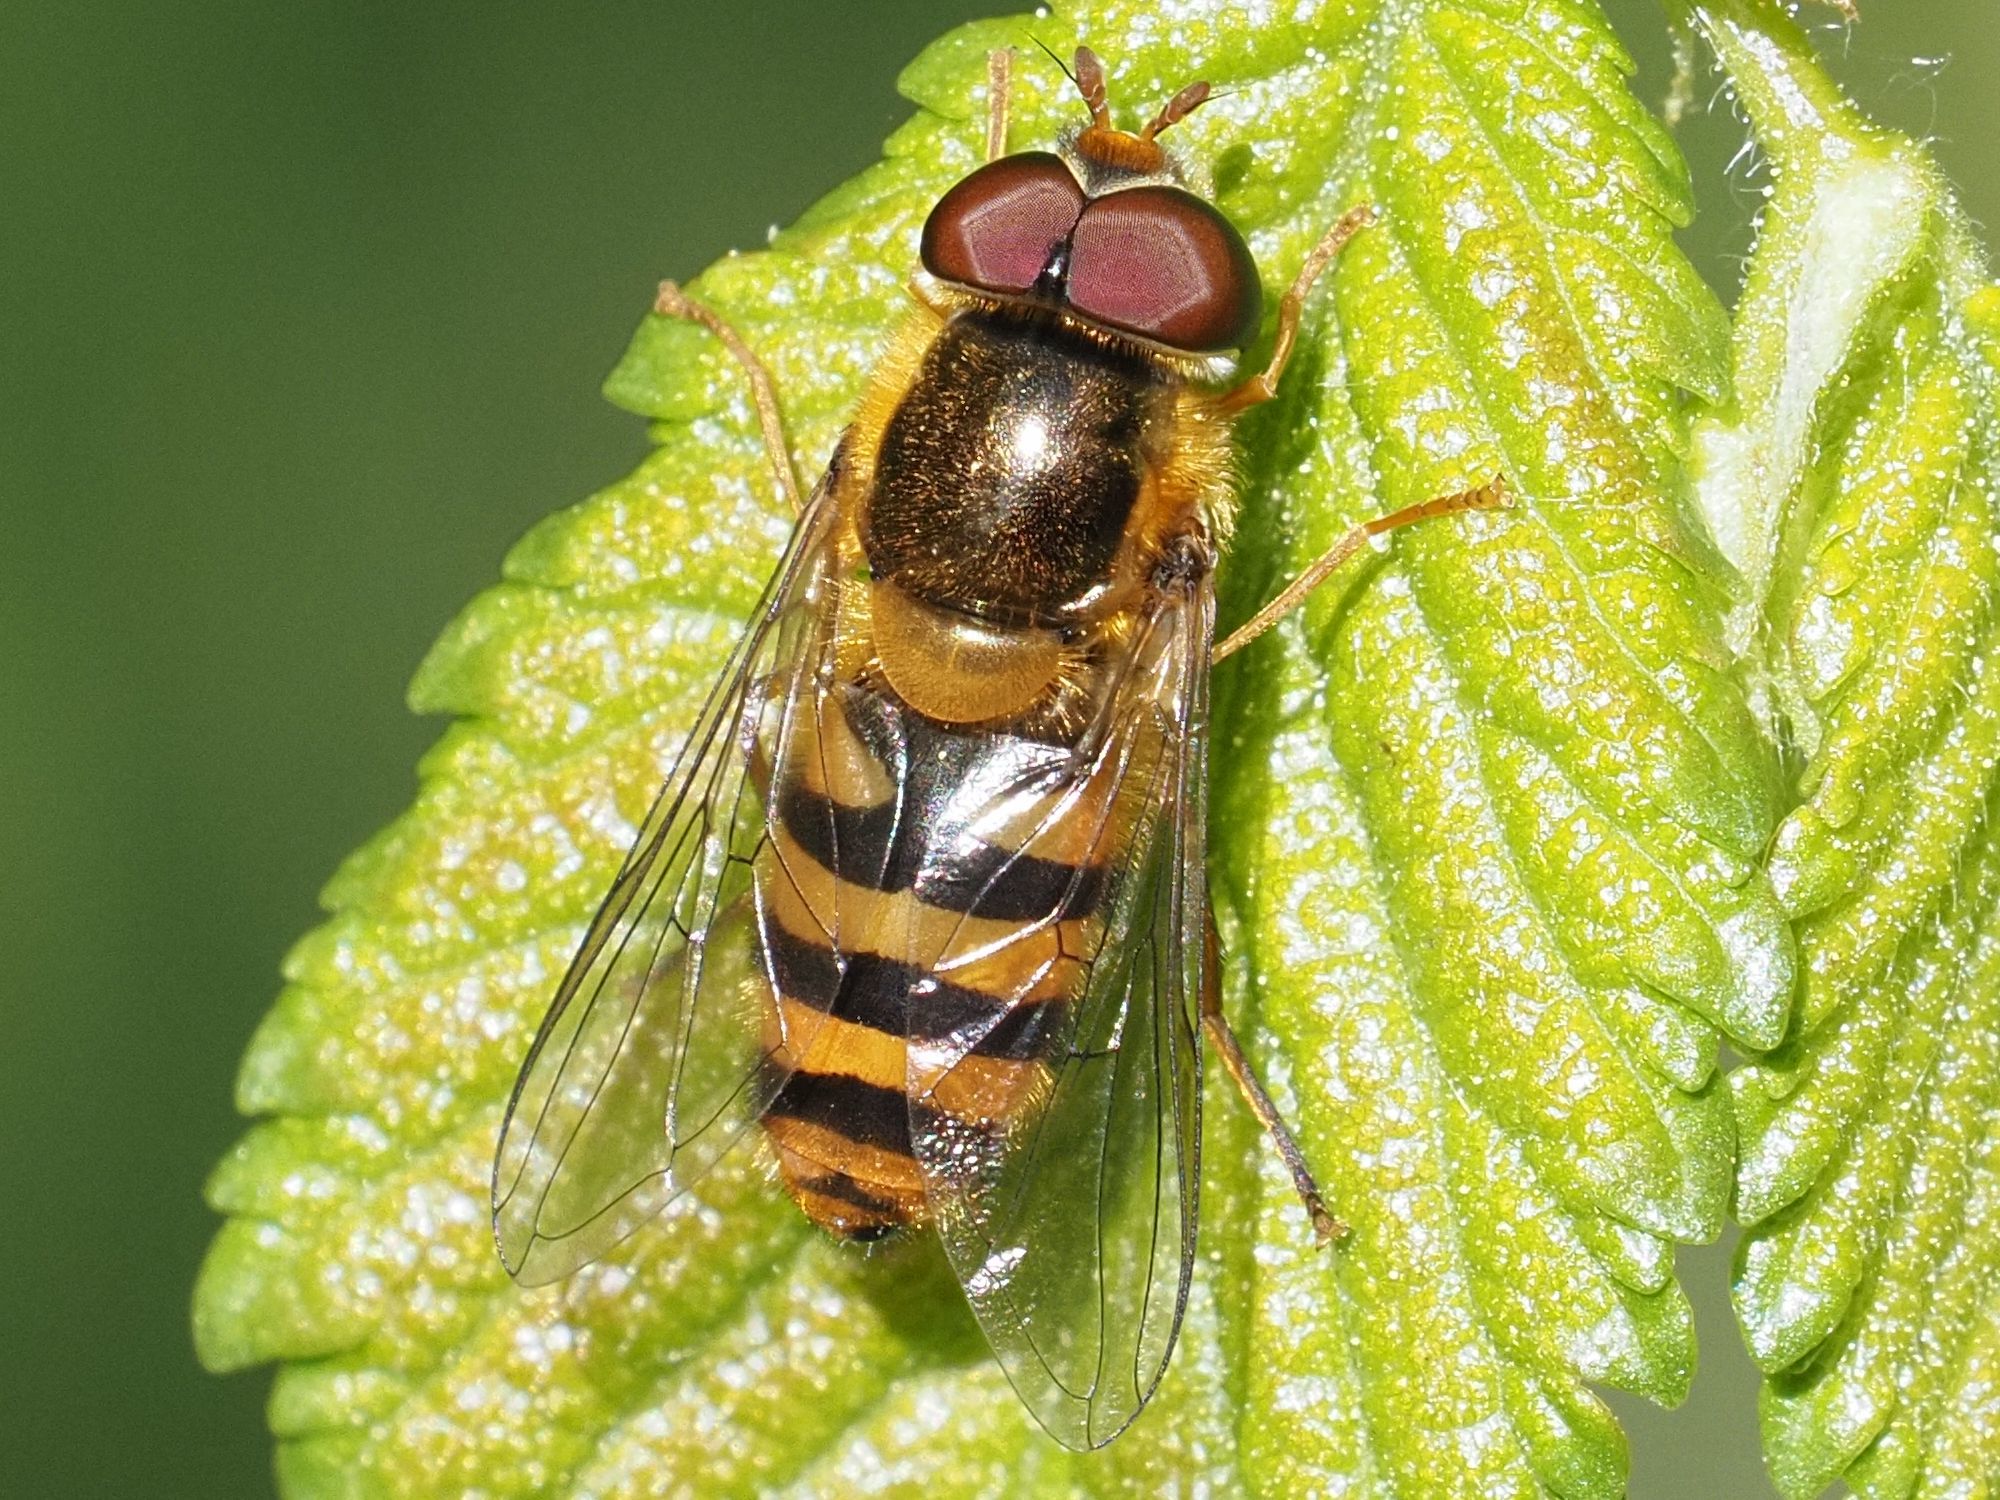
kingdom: Animalia
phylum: Arthropoda
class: Insecta
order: Diptera
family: Syrphidae
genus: Epistrophe
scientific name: Epistrophe nitidicollis
